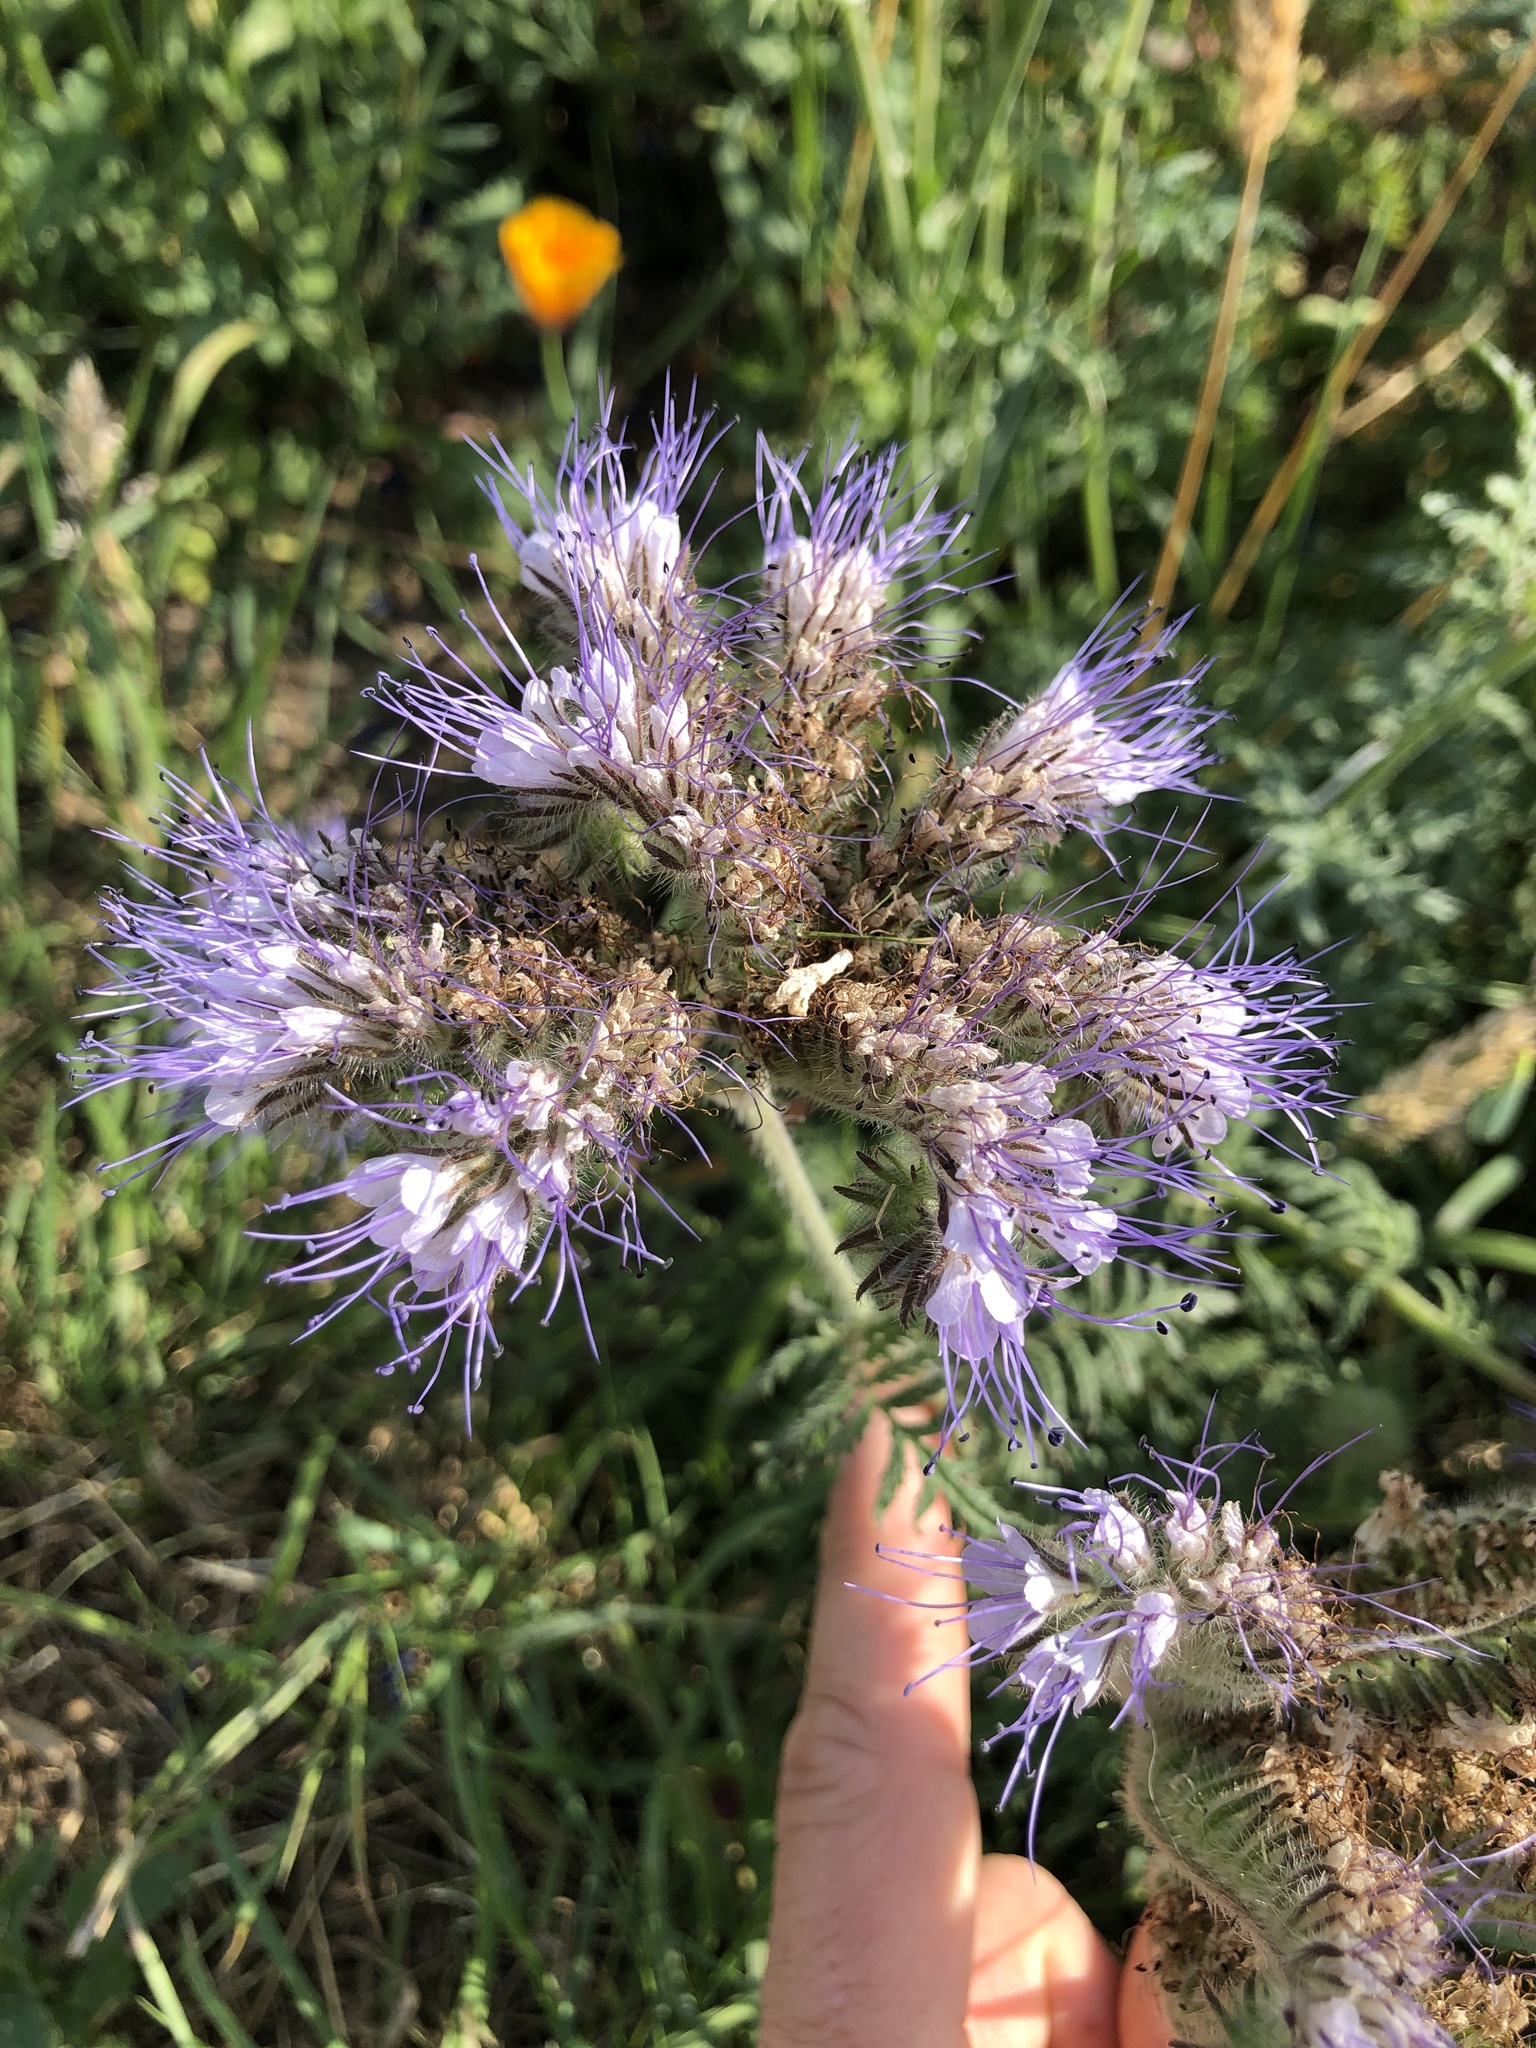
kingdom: Plantae
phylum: Tracheophyta
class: Magnoliopsida
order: Boraginales
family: Hydrophyllaceae
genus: Phacelia
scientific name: Phacelia tanacetifolia
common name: Phacelia
